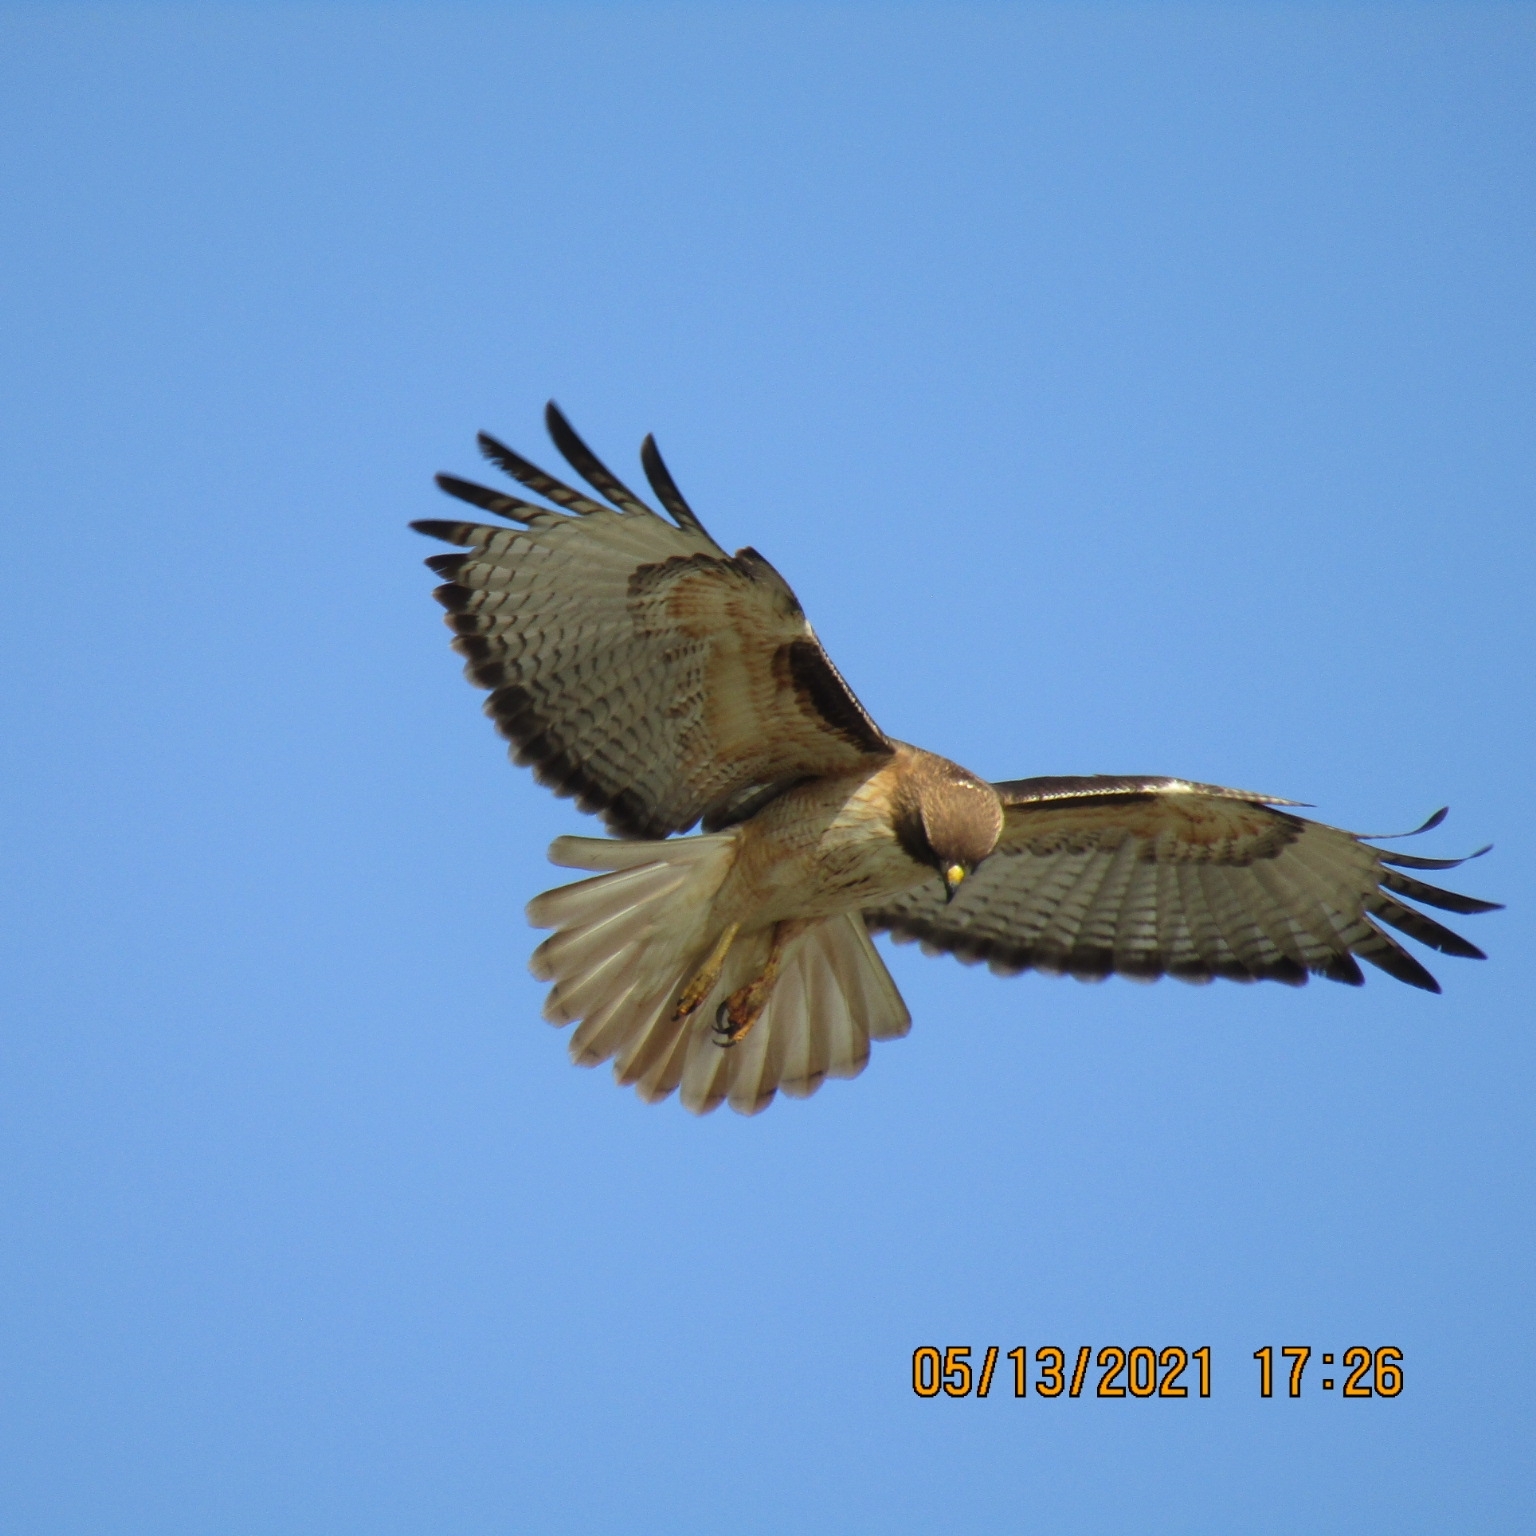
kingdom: Animalia
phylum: Chordata
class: Aves
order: Accipitriformes
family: Accipitridae
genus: Buteo
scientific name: Buteo jamaicensis
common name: Red-tailed hawk
